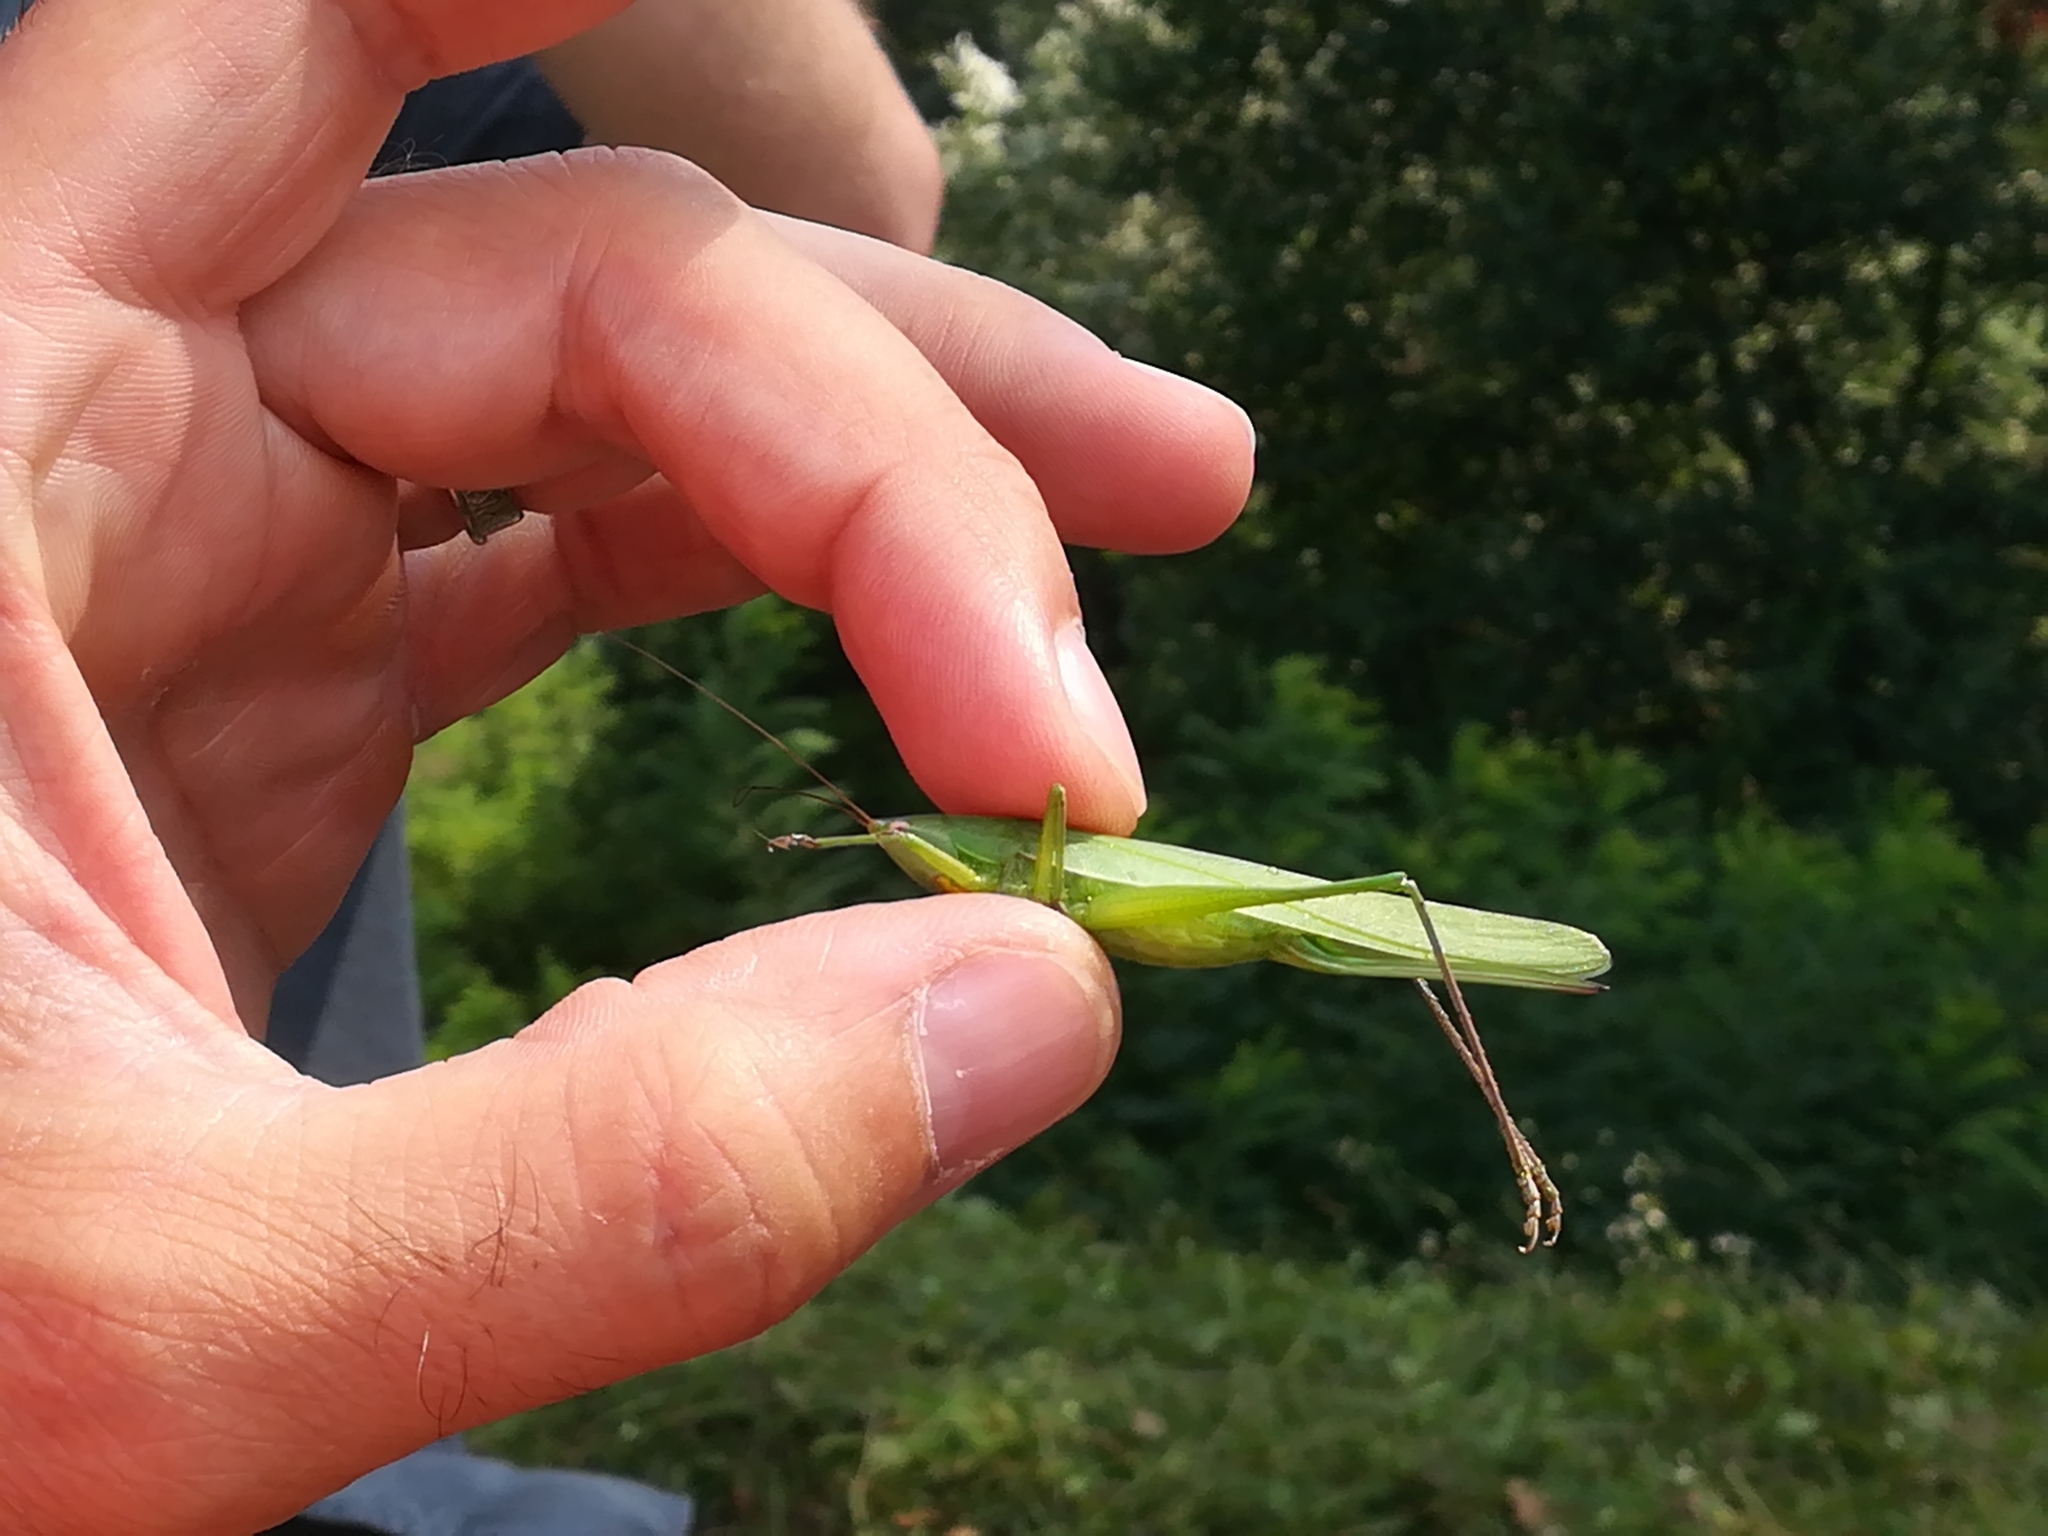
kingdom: Animalia
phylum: Arthropoda
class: Insecta
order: Orthoptera
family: Tettigoniidae
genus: Ruspolia
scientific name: Ruspolia nitidula
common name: Large conehead
